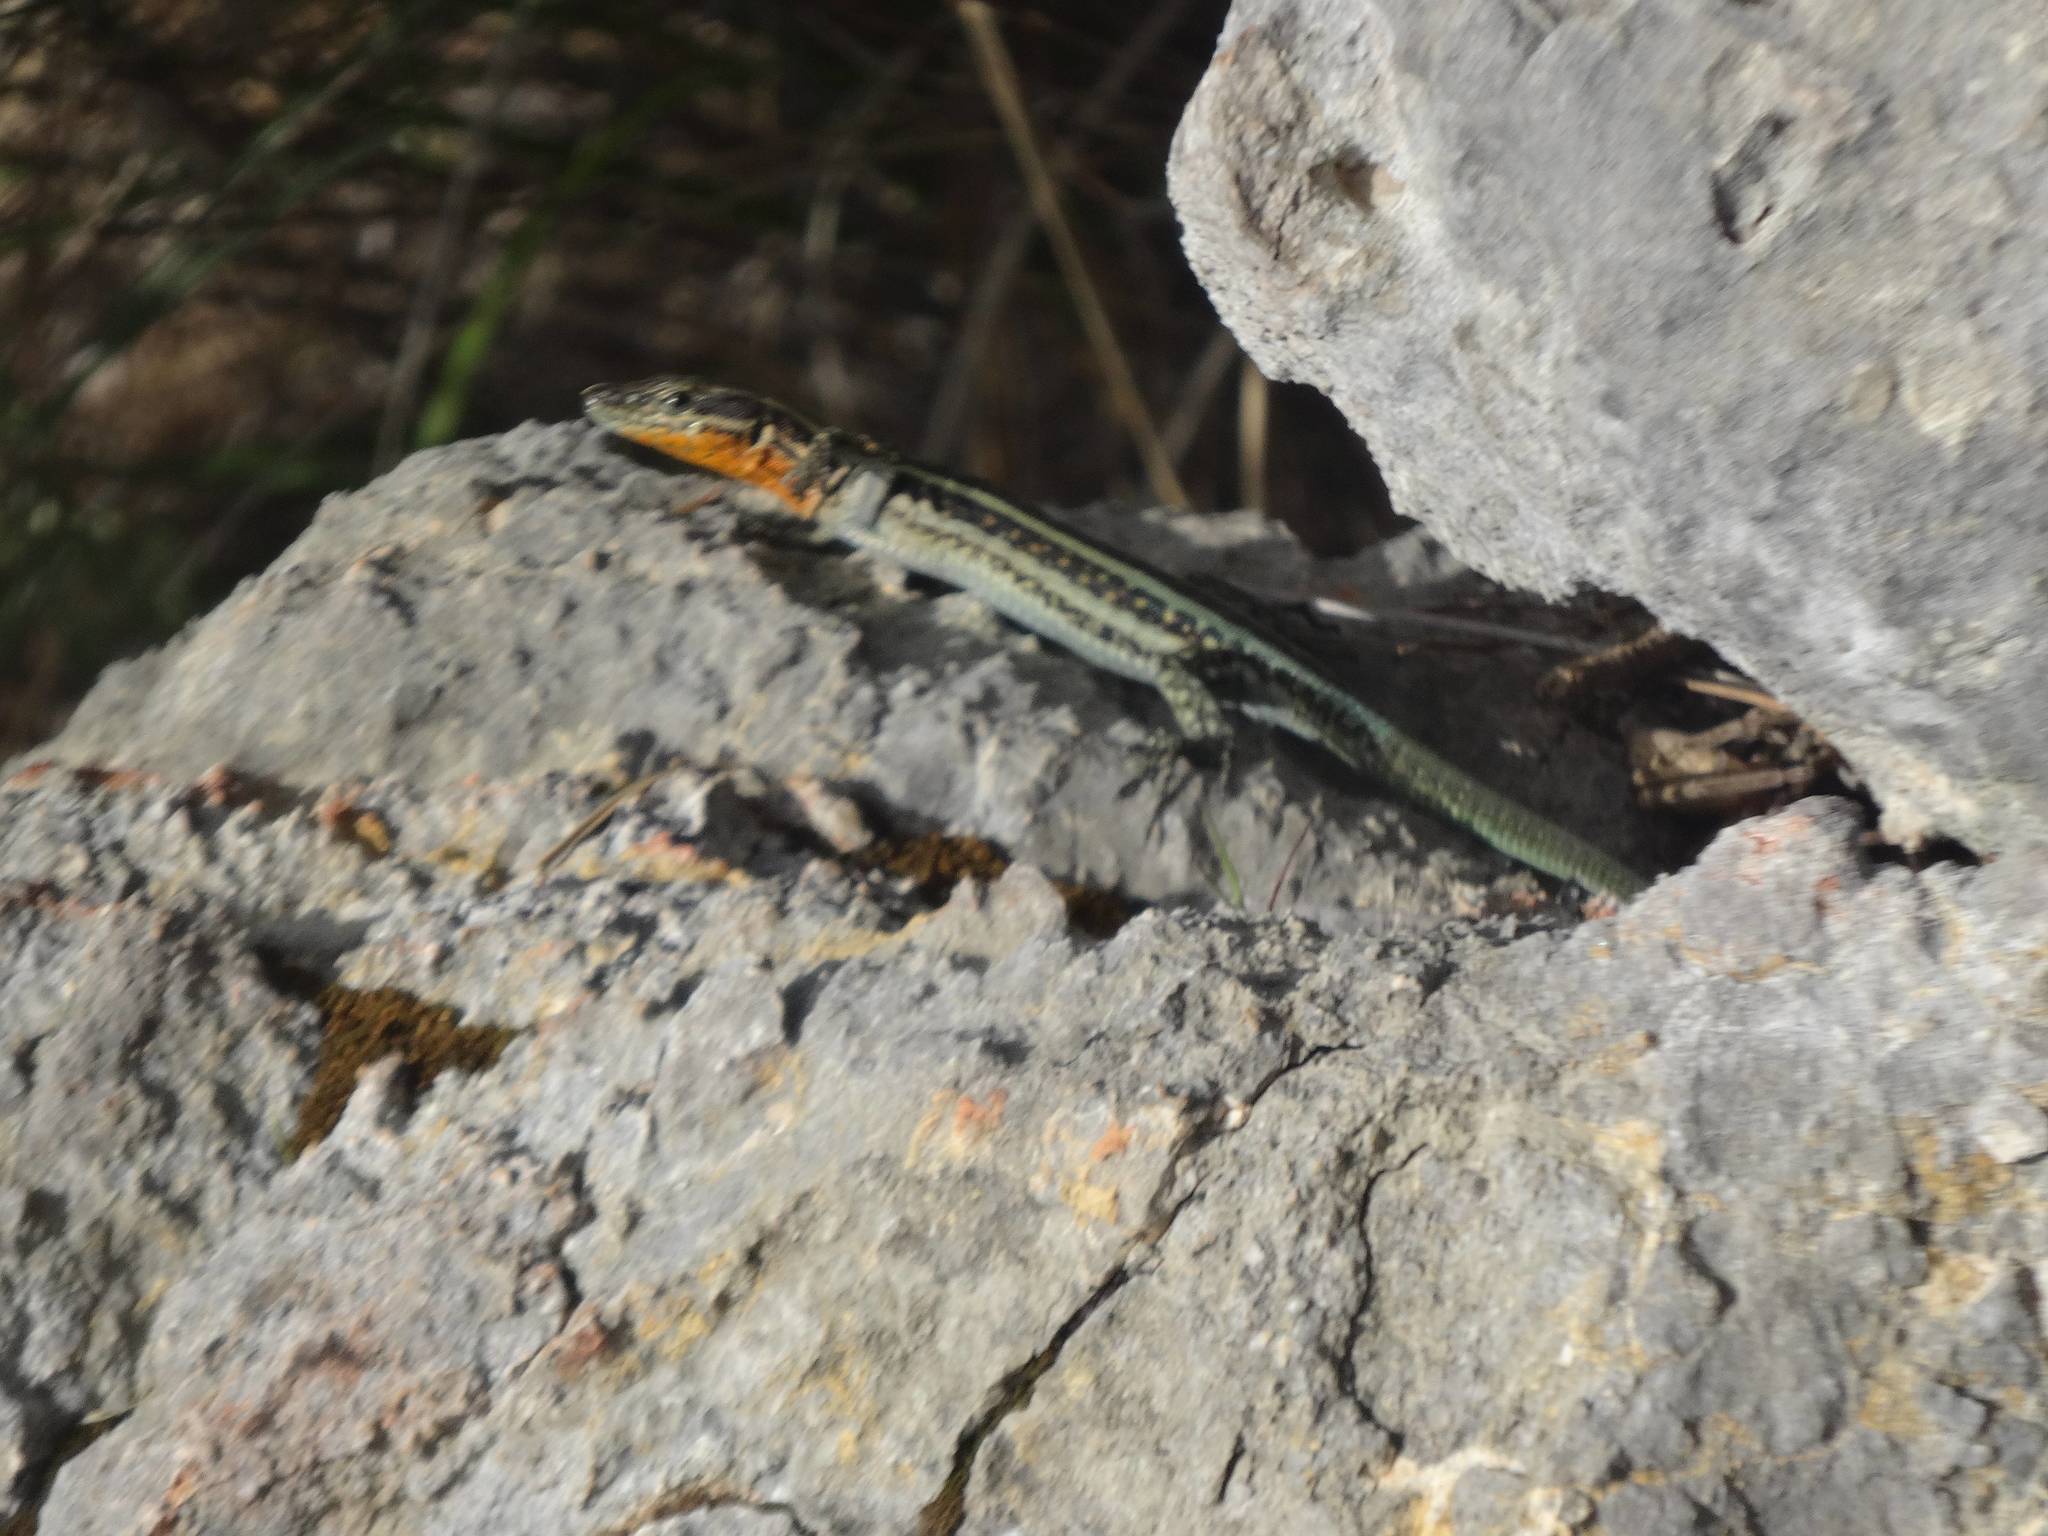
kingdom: Animalia
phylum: Chordata
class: Squamata
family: Lacertidae
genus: Anatololacerta
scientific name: Anatololacerta pelasgiana
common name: Pelasgian rock lizard
